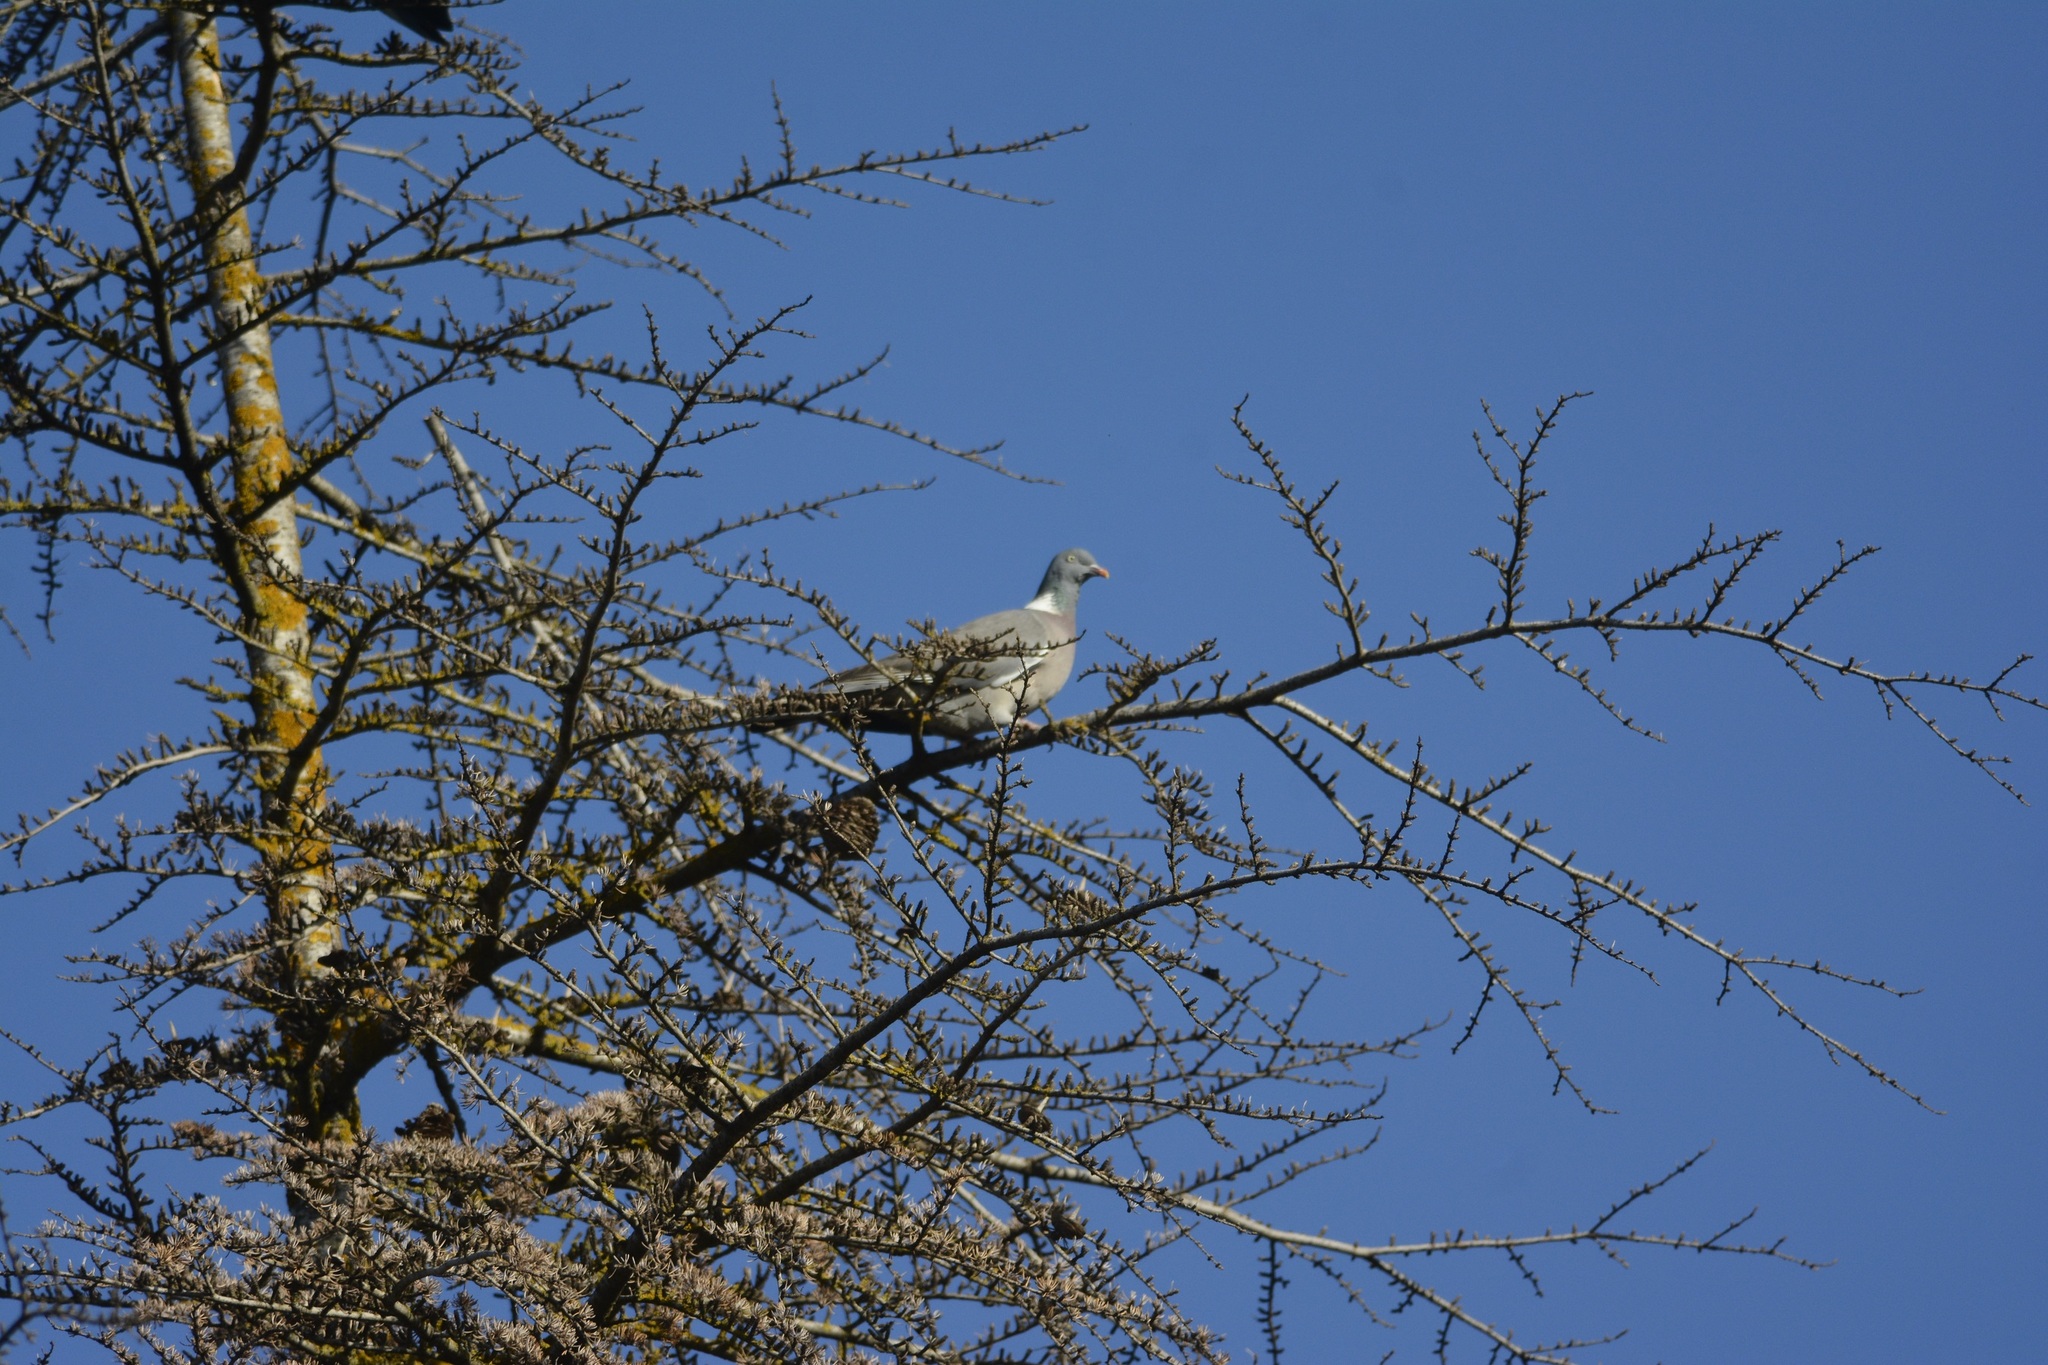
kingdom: Animalia
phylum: Chordata
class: Aves
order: Columbiformes
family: Columbidae
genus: Columba
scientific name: Columba palumbus
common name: Common wood pigeon
